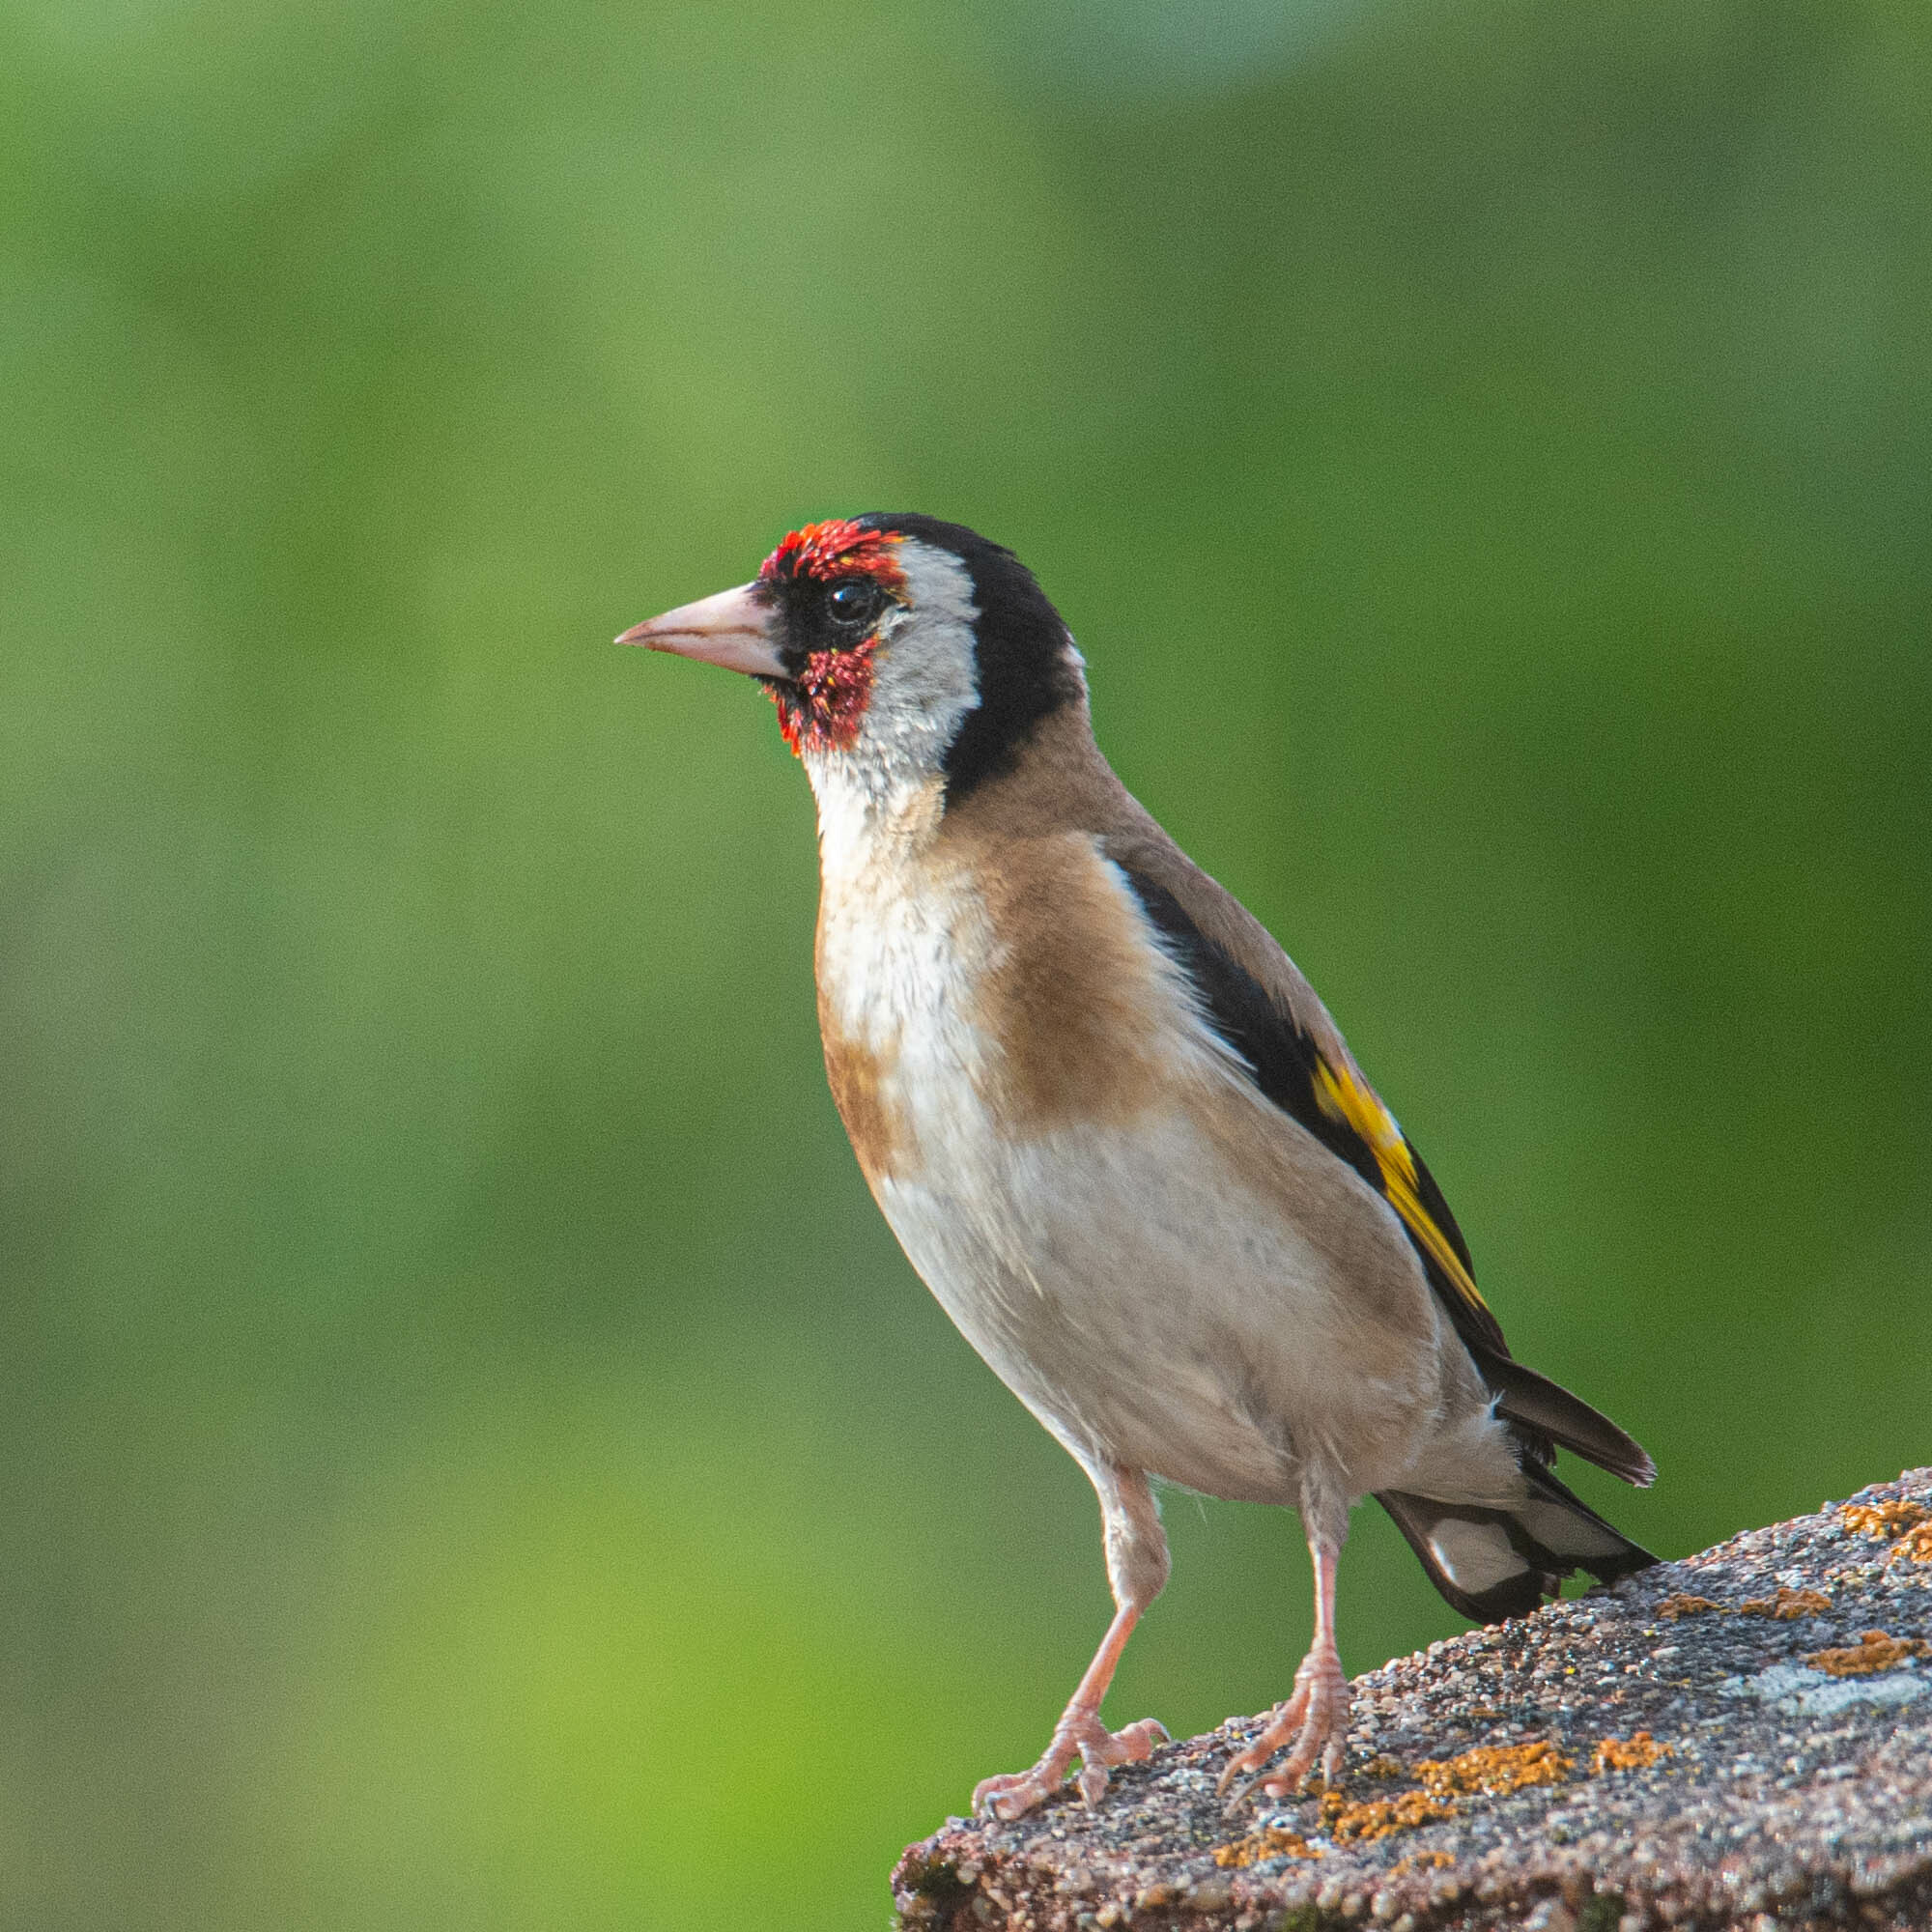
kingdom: Animalia
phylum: Chordata
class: Aves
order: Passeriformes
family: Fringillidae
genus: Carduelis
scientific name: Carduelis carduelis
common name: European goldfinch
